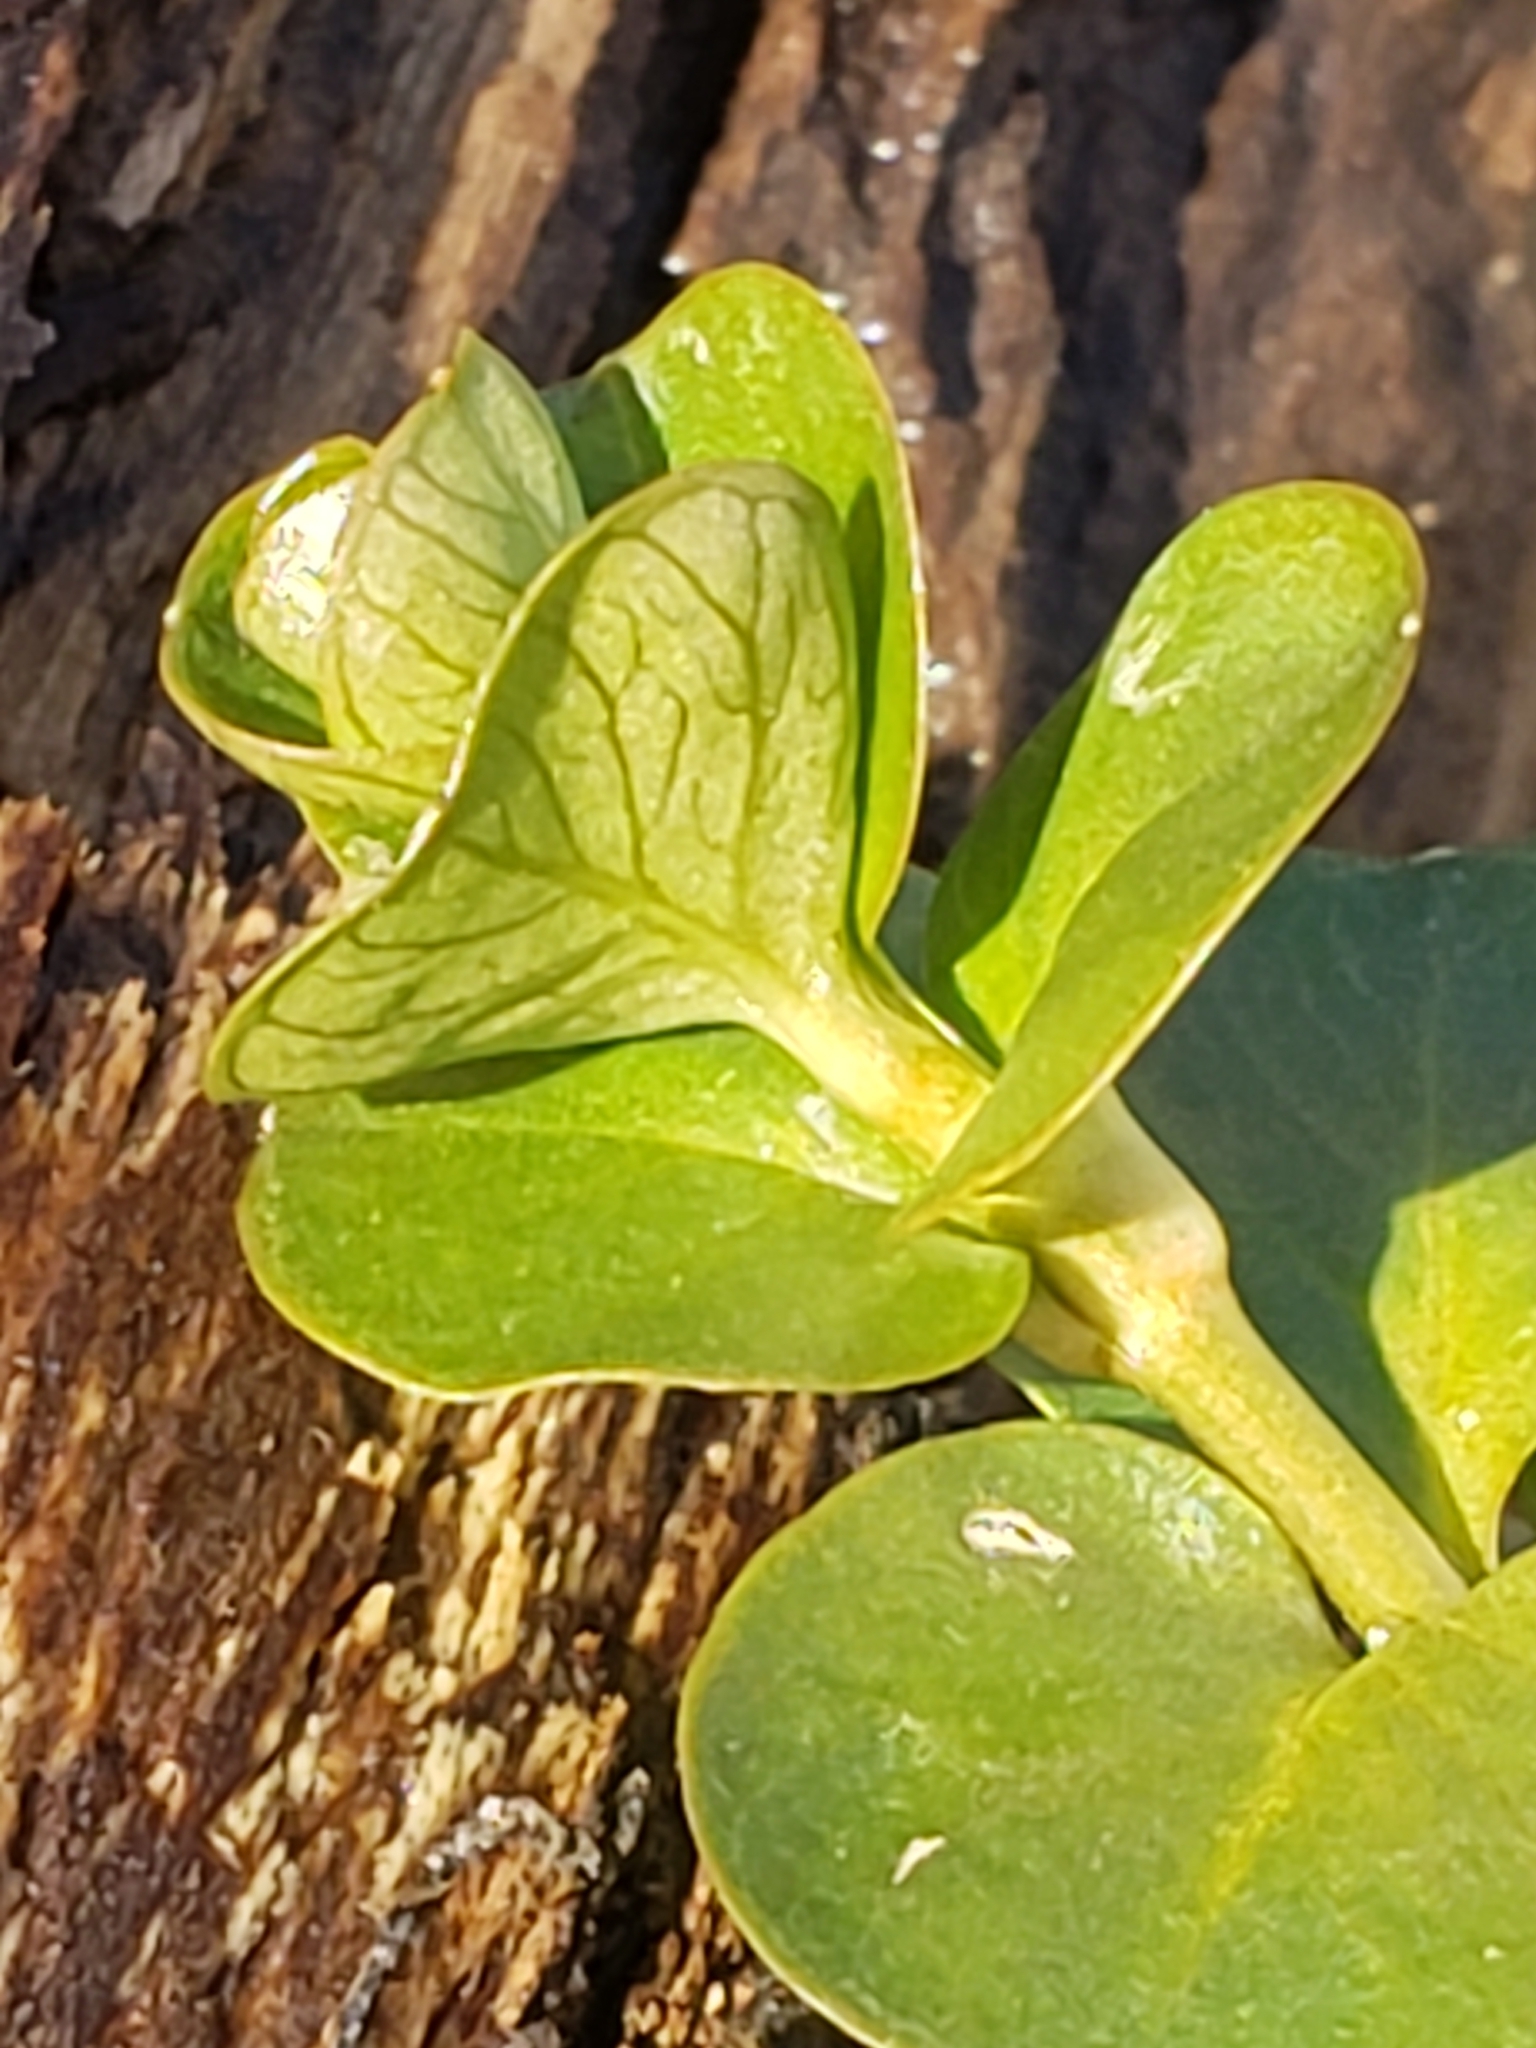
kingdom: Plantae
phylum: Tracheophyta
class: Magnoliopsida
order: Ericales
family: Primulaceae
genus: Lysimachia
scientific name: Lysimachia nummularia
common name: Moneywort
